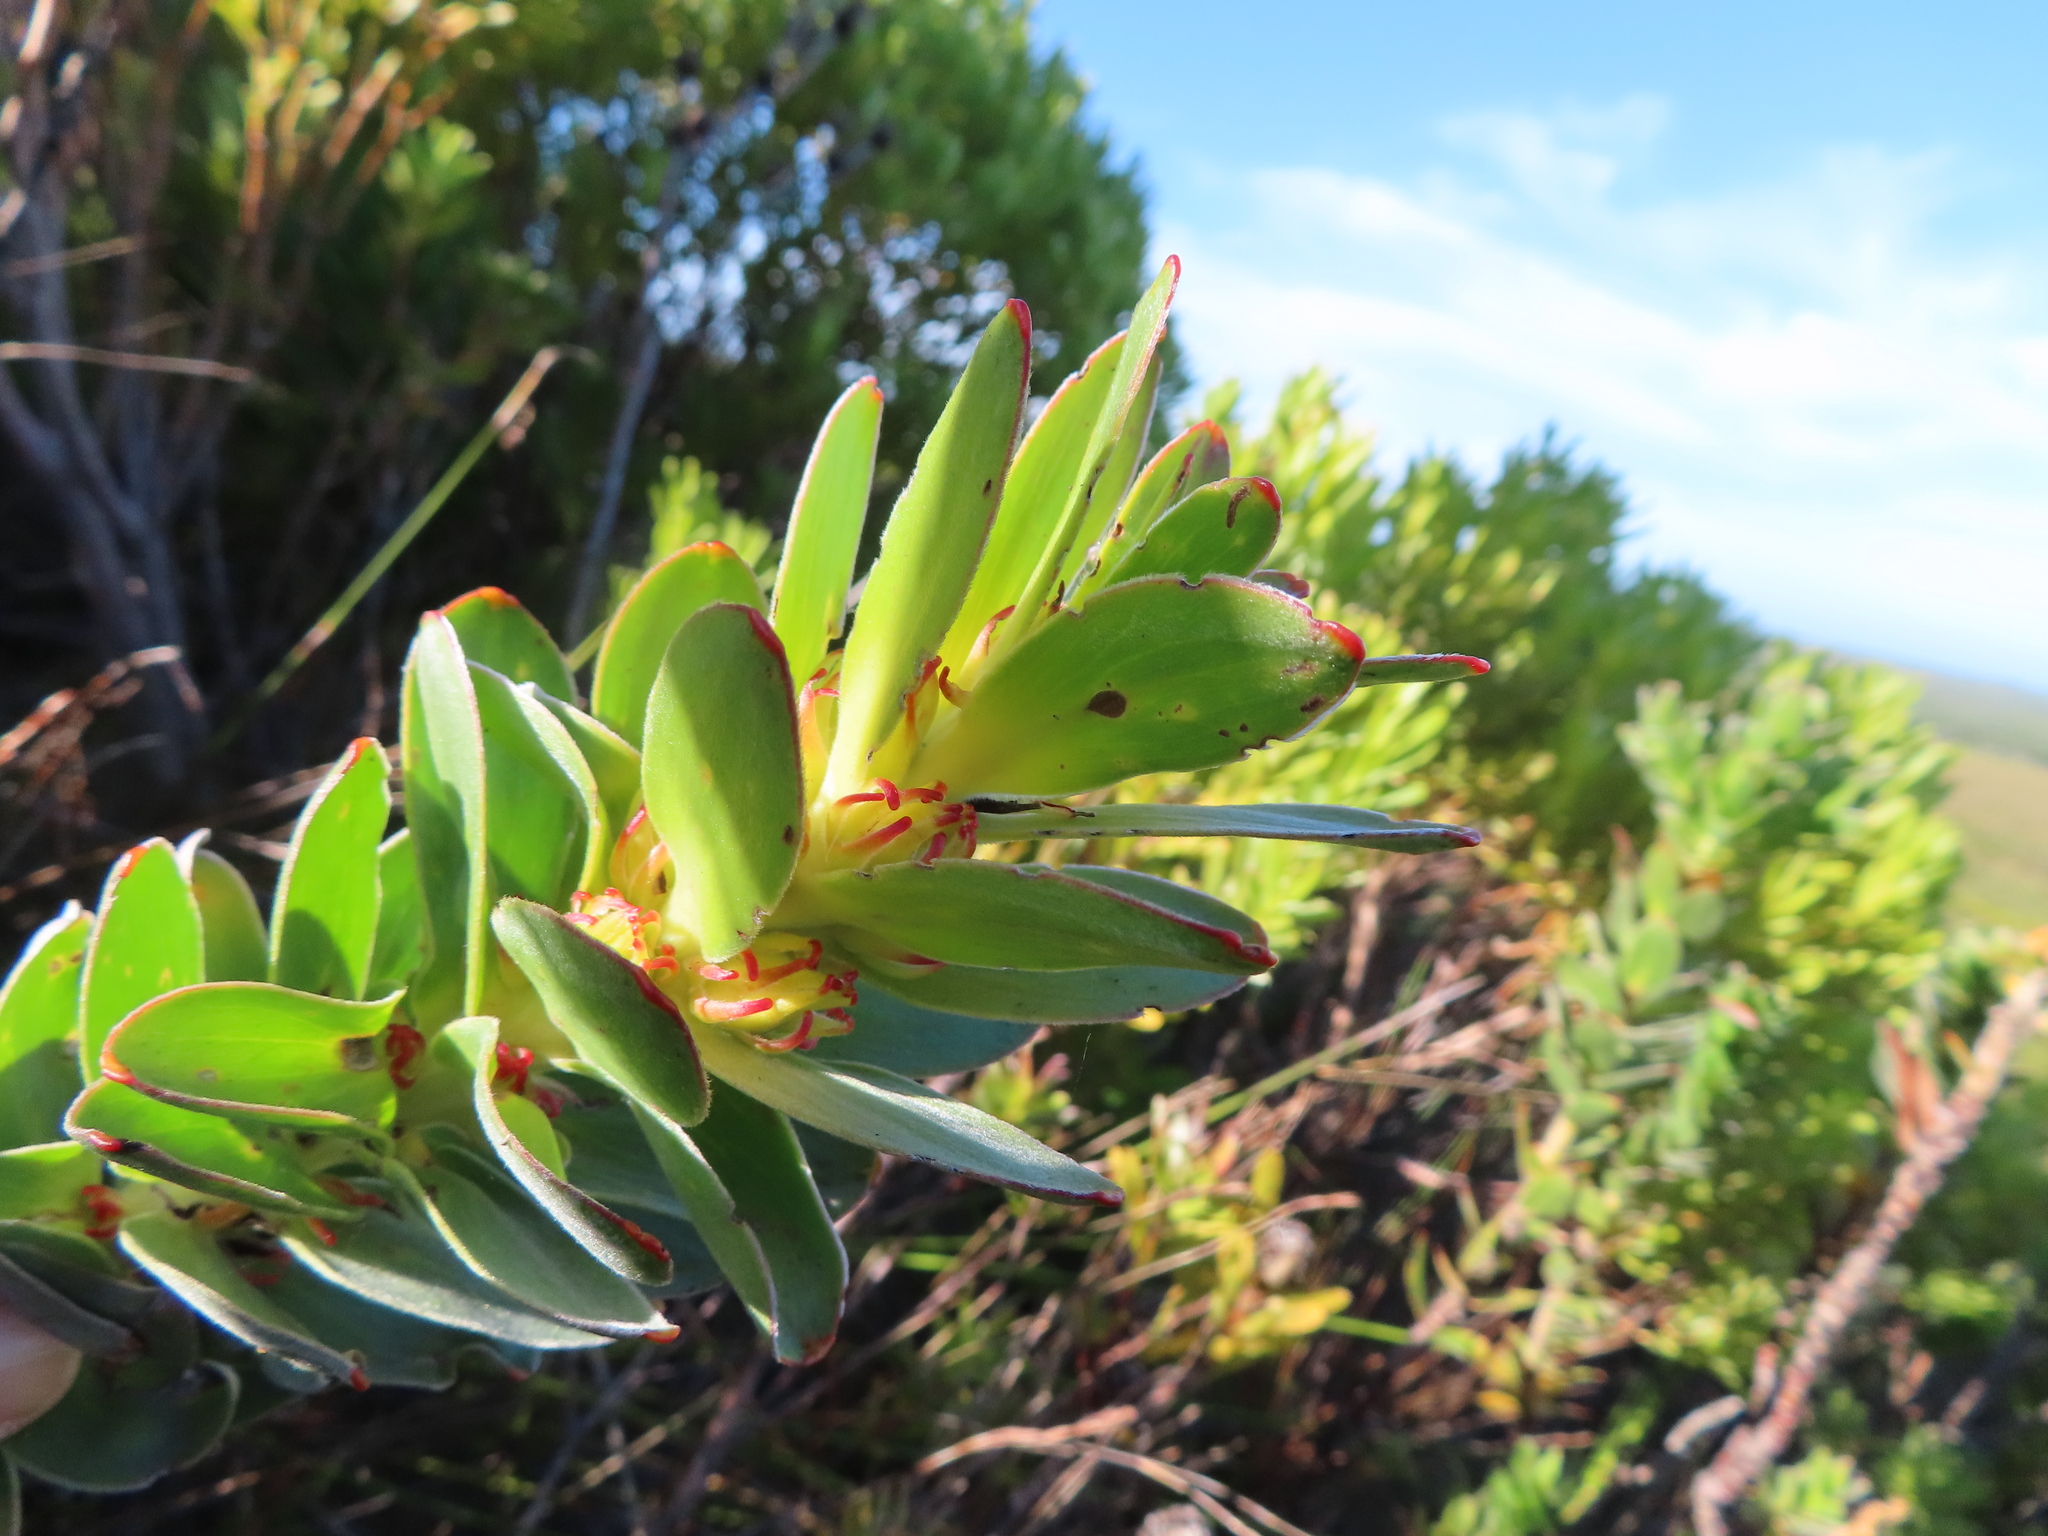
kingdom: Plantae
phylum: Tracheophyta
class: Magnoliopsida
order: Proteales
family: Proteaceae
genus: Mimetes
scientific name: Mimetes saxatilis
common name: Limestone pagoda
